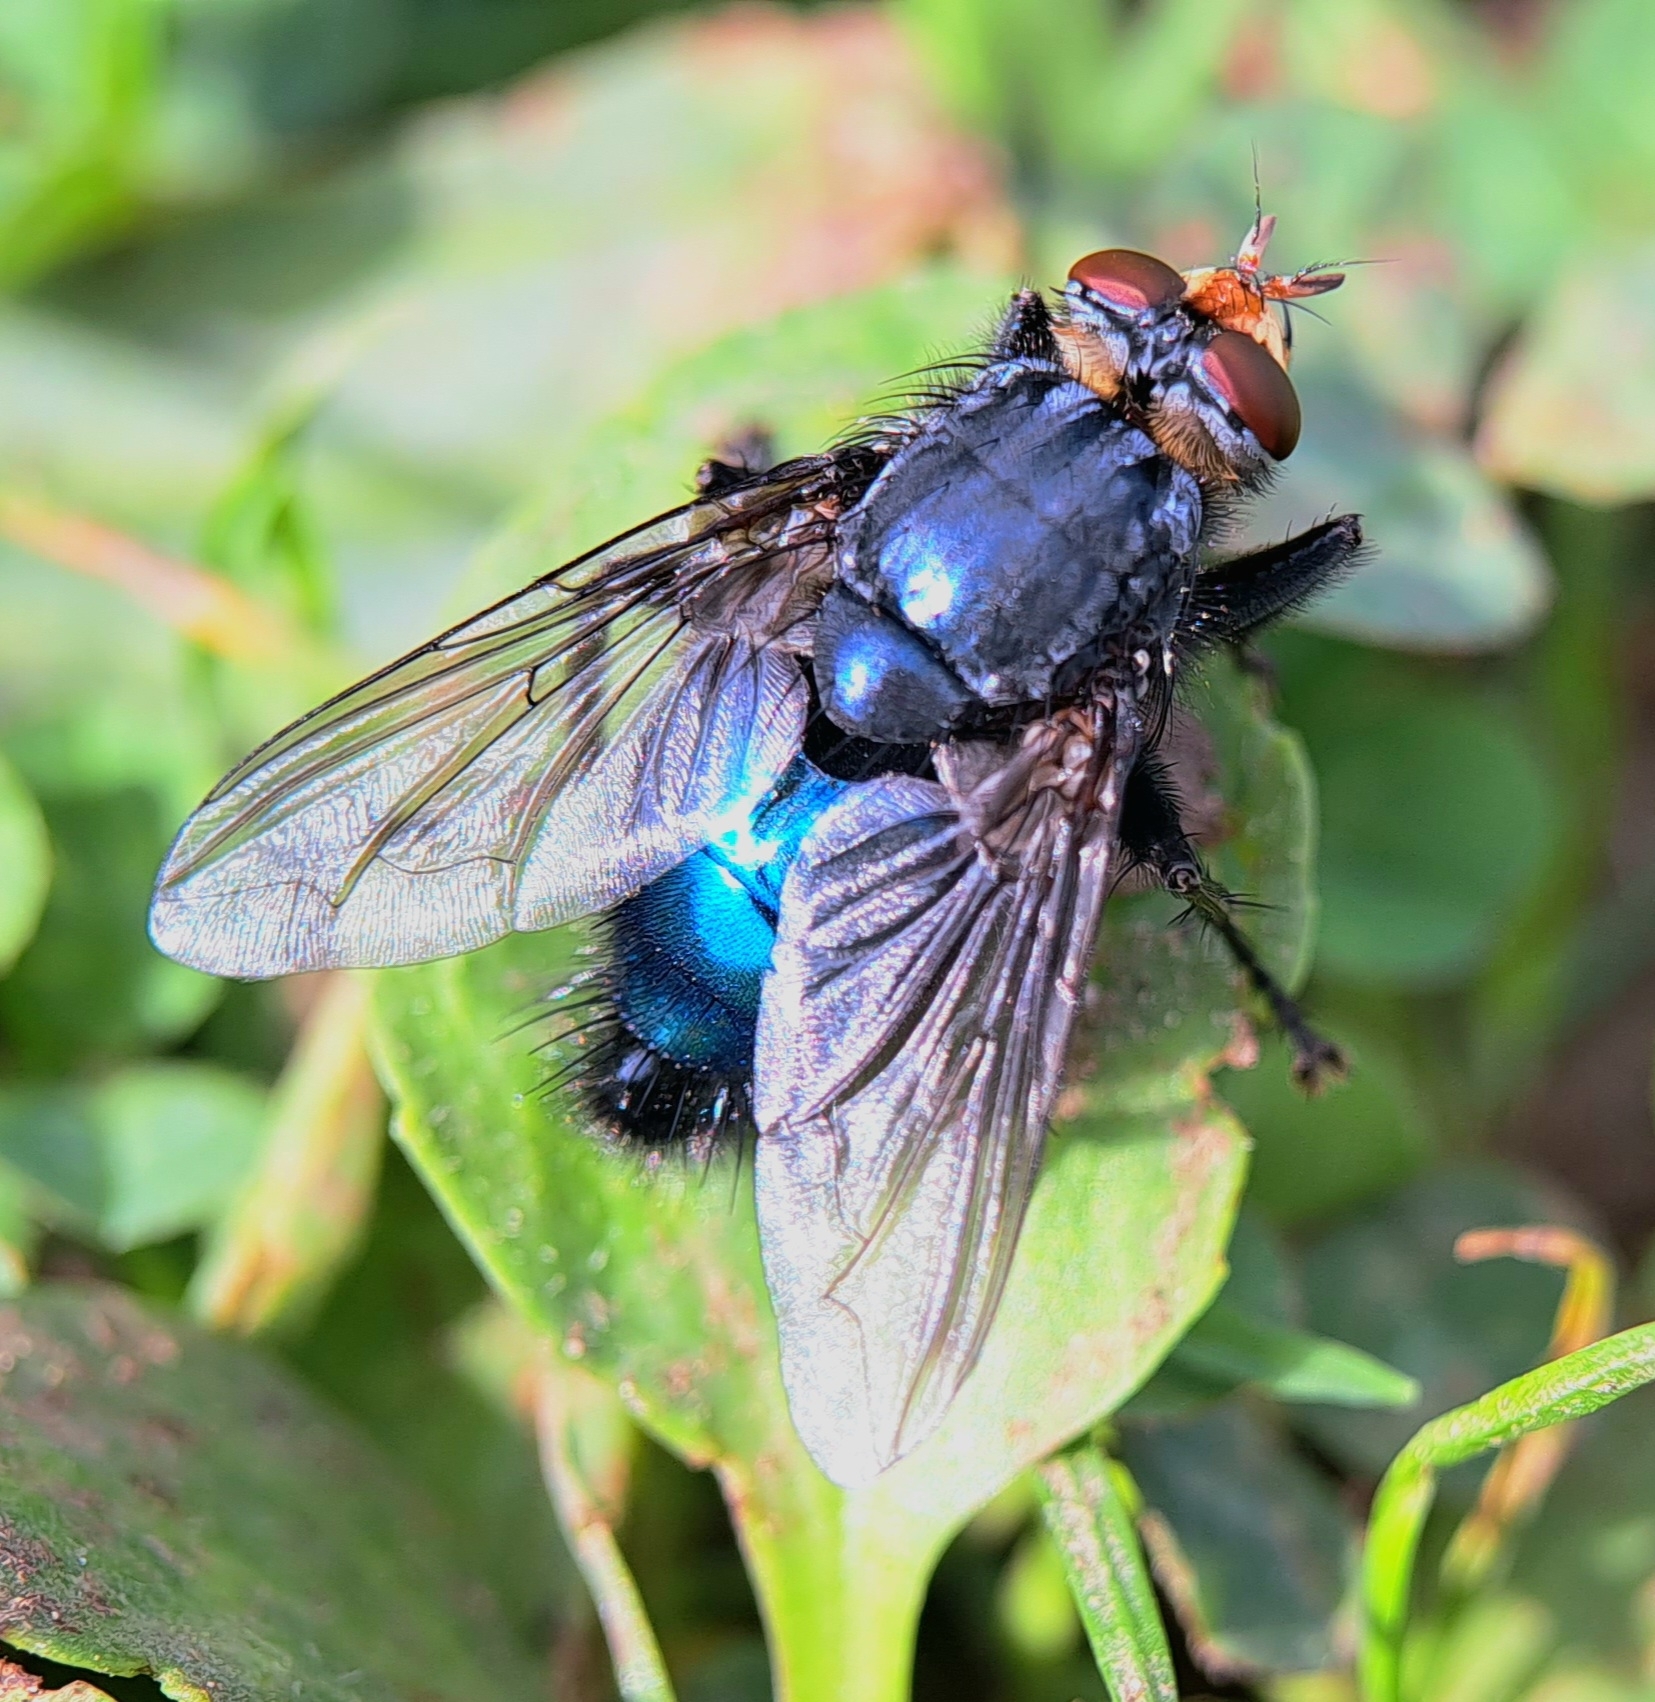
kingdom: Animalia
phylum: Arthropoda
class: Insecta
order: Diptera
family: Calliphoridae
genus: Cynomya
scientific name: Cynomya mortuorum
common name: Bluebottle blow fly
